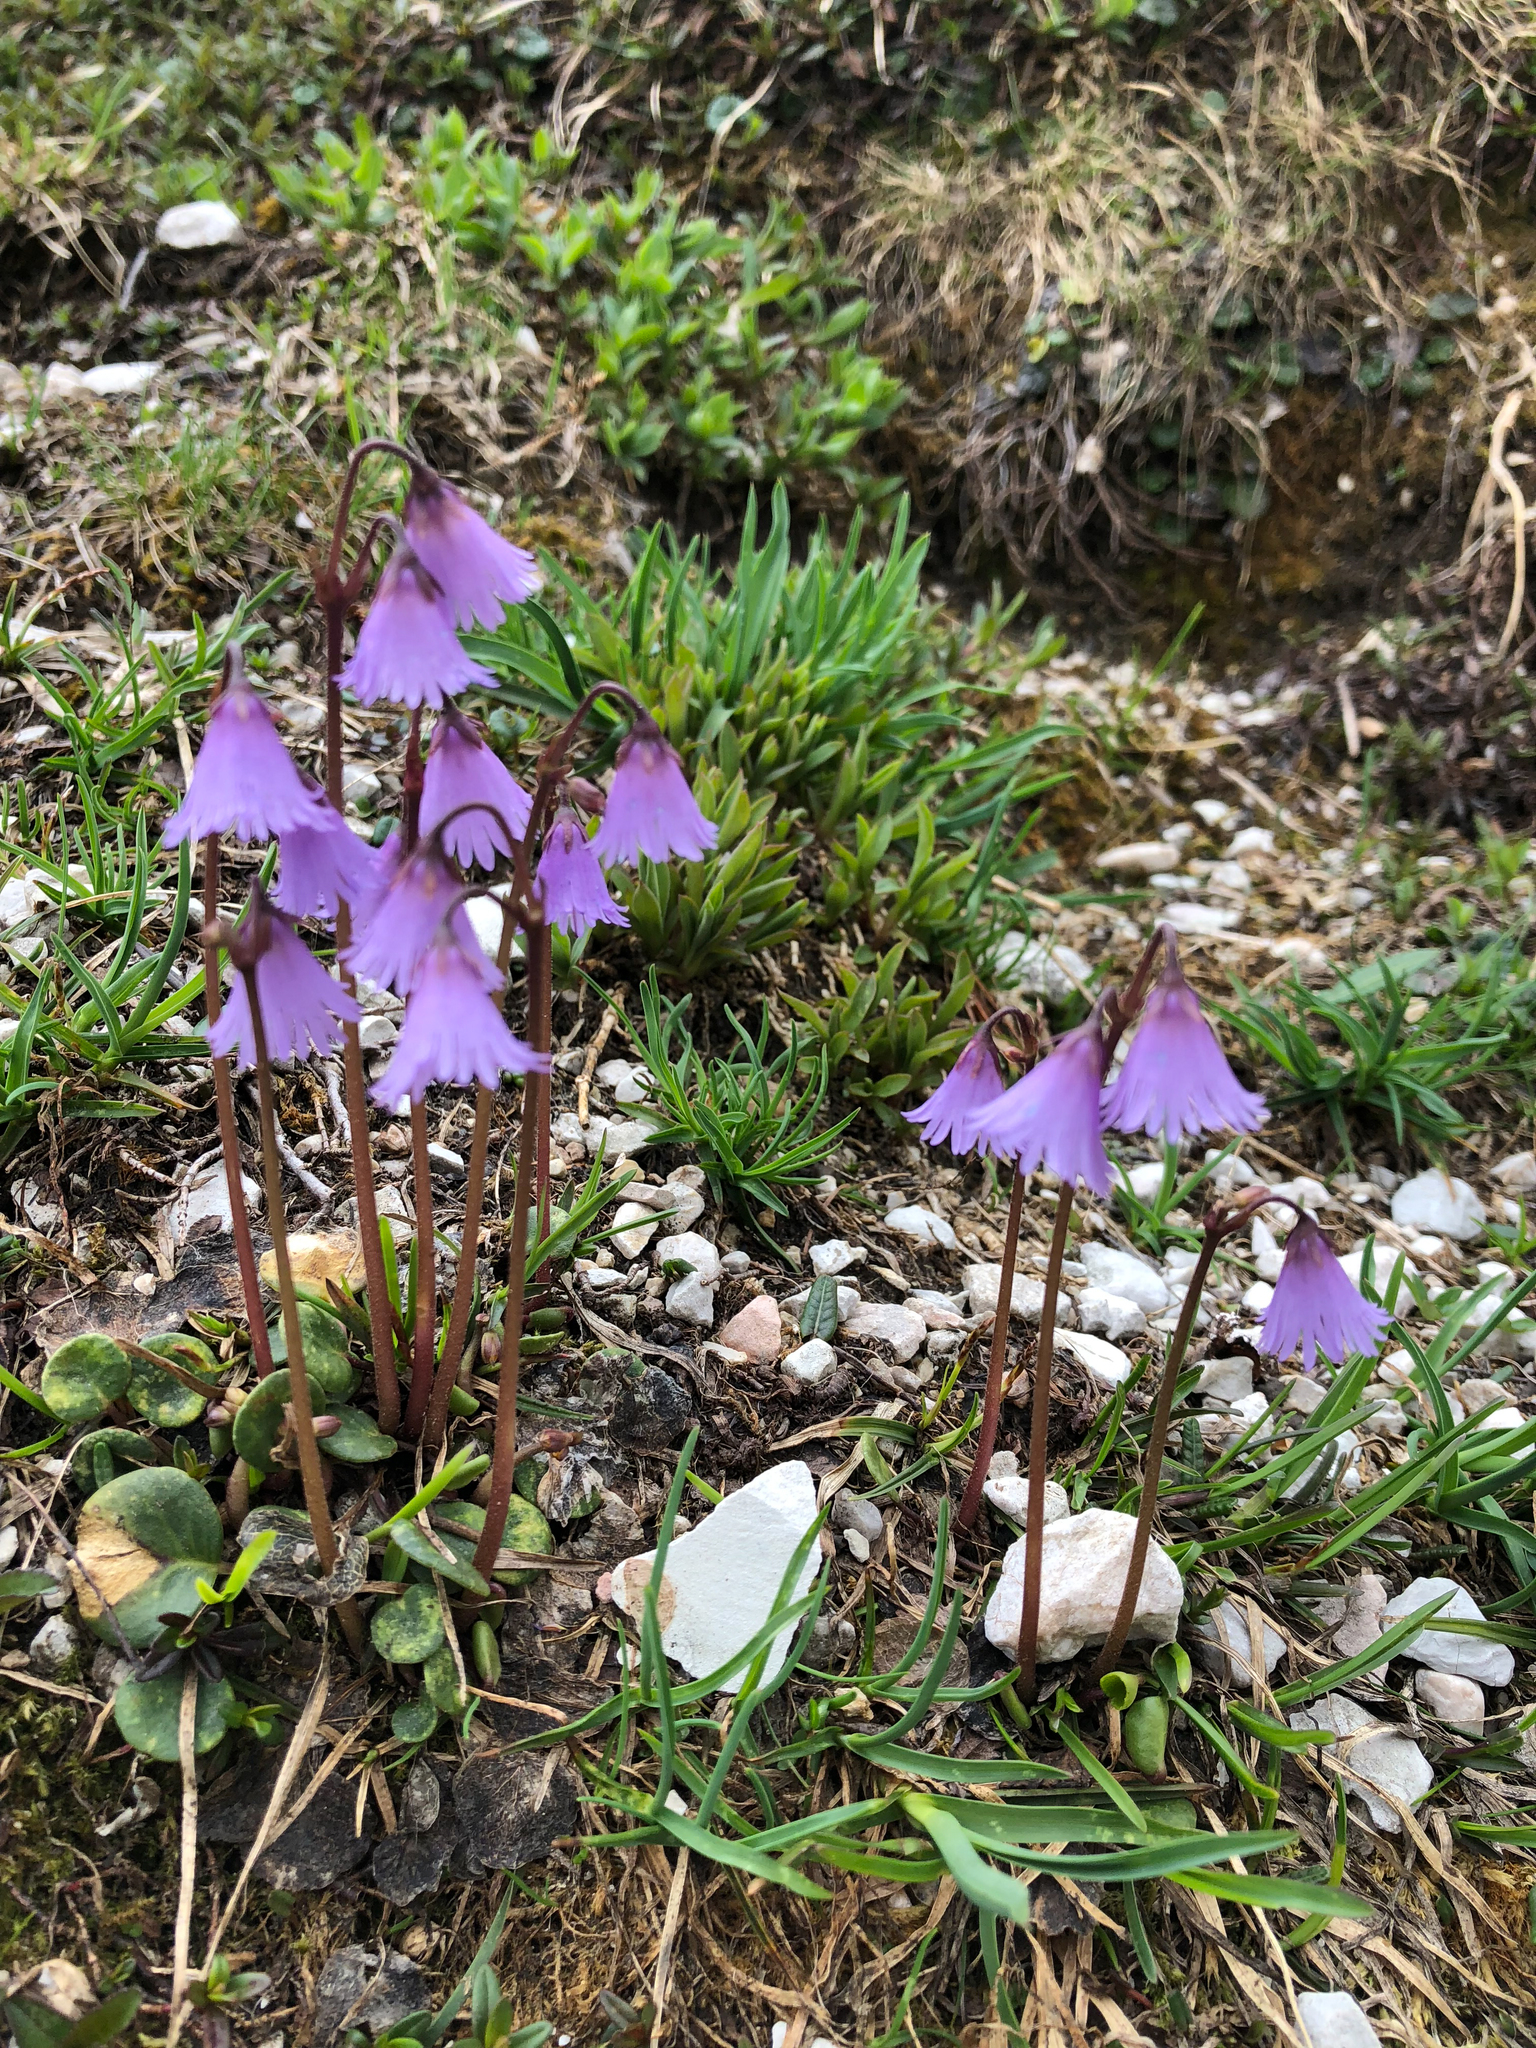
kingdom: Plantae
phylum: Tracheophyta
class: Magnoliopsida
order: Ericales
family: Primulaceae
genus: Soldanella
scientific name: Soldanella alpina
